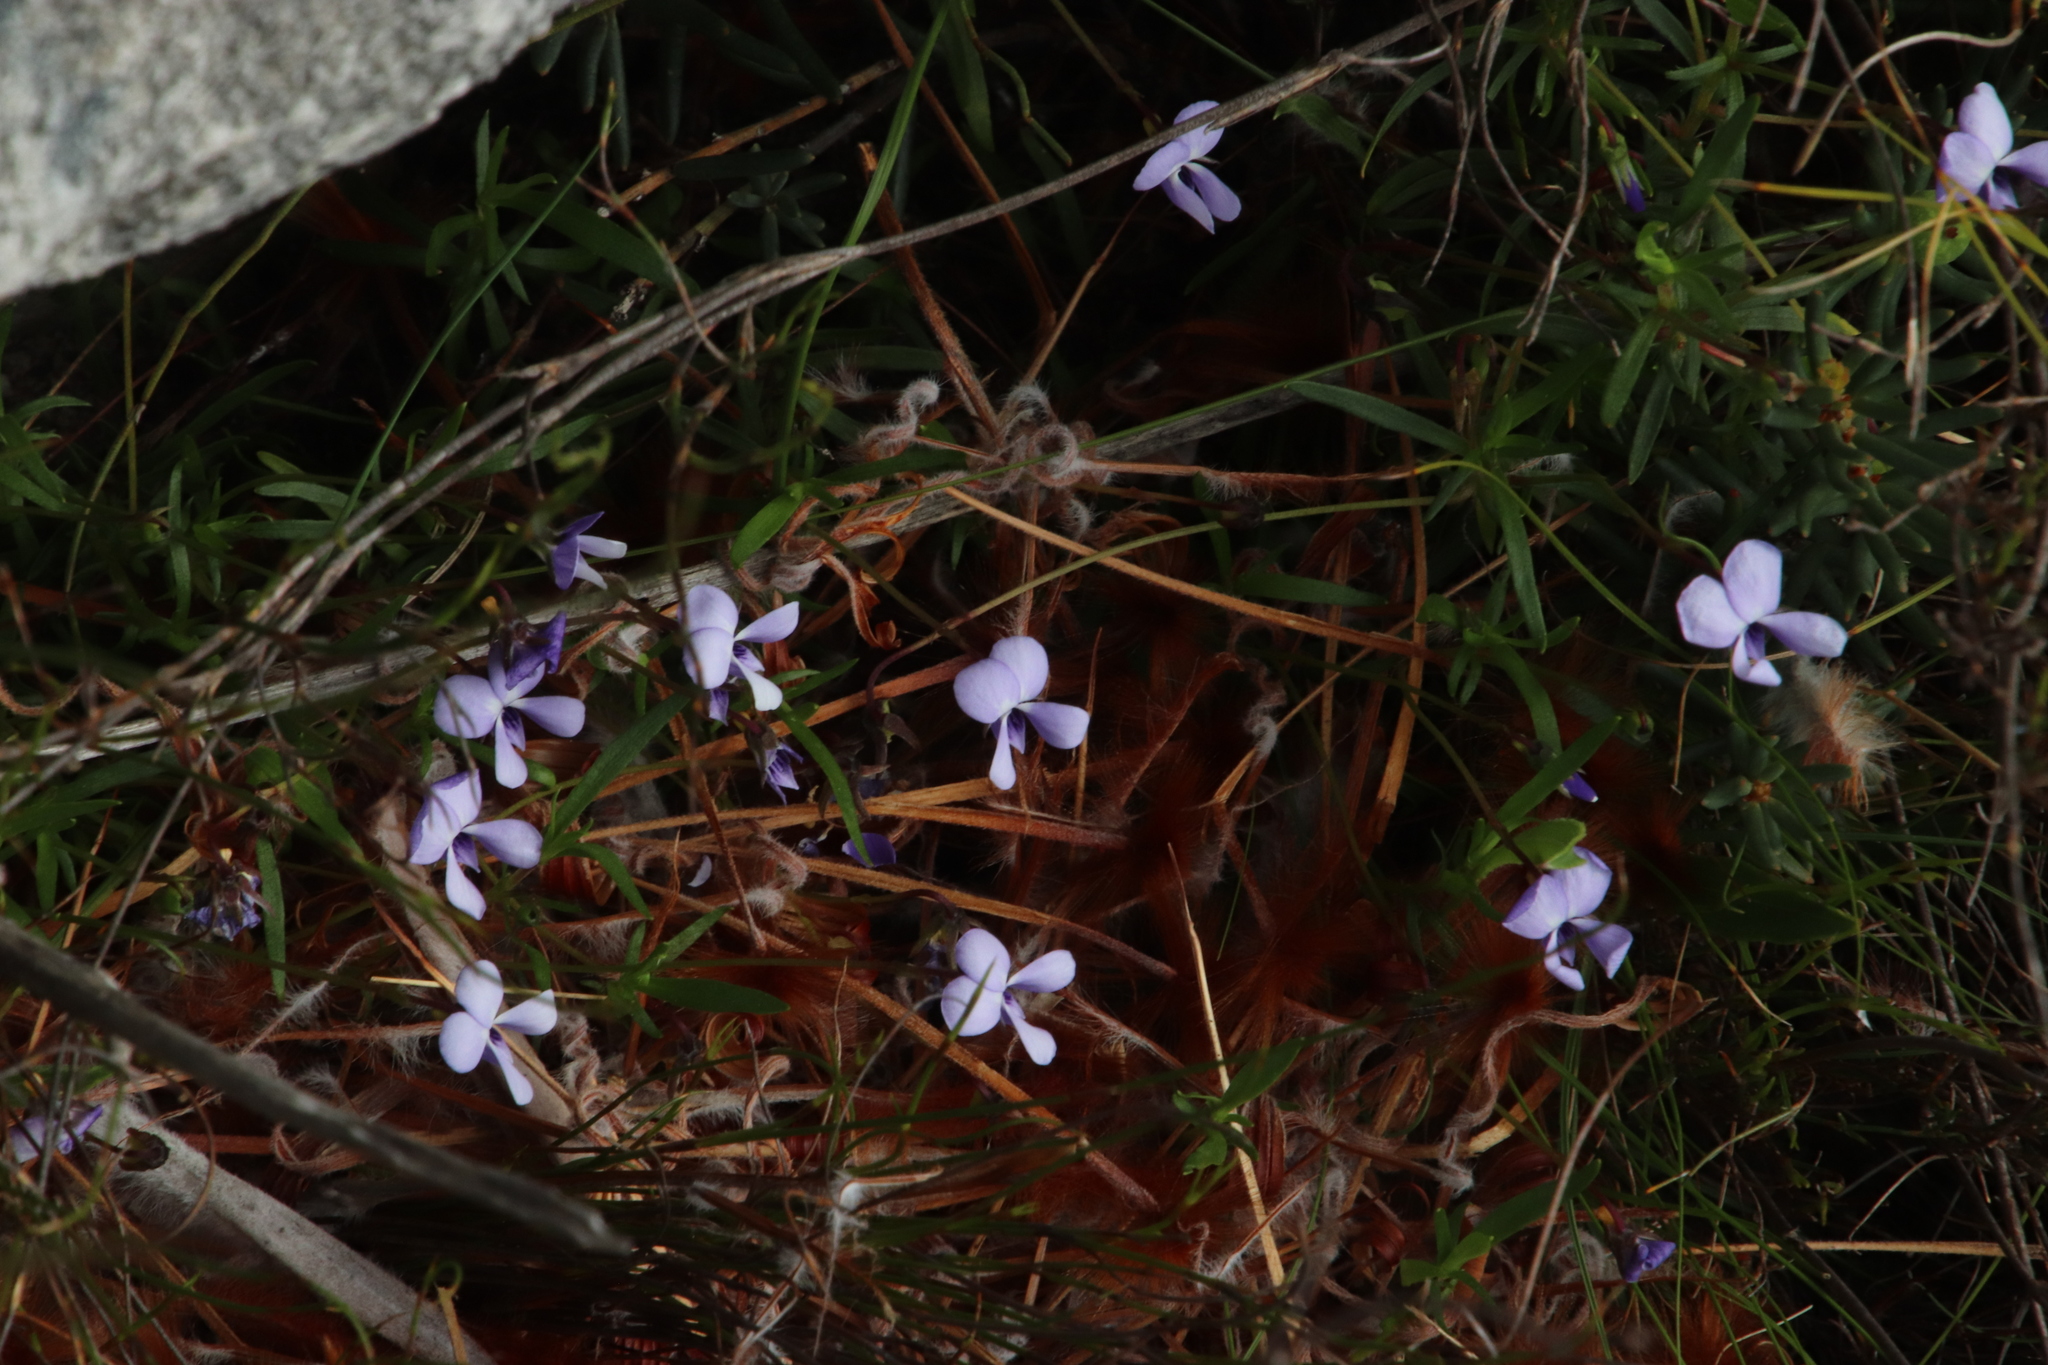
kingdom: Plantae
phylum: Tracheophyta
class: Magnoliopsida
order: Malpighiales
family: Violaceae
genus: Viola
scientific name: Viola decumbens
